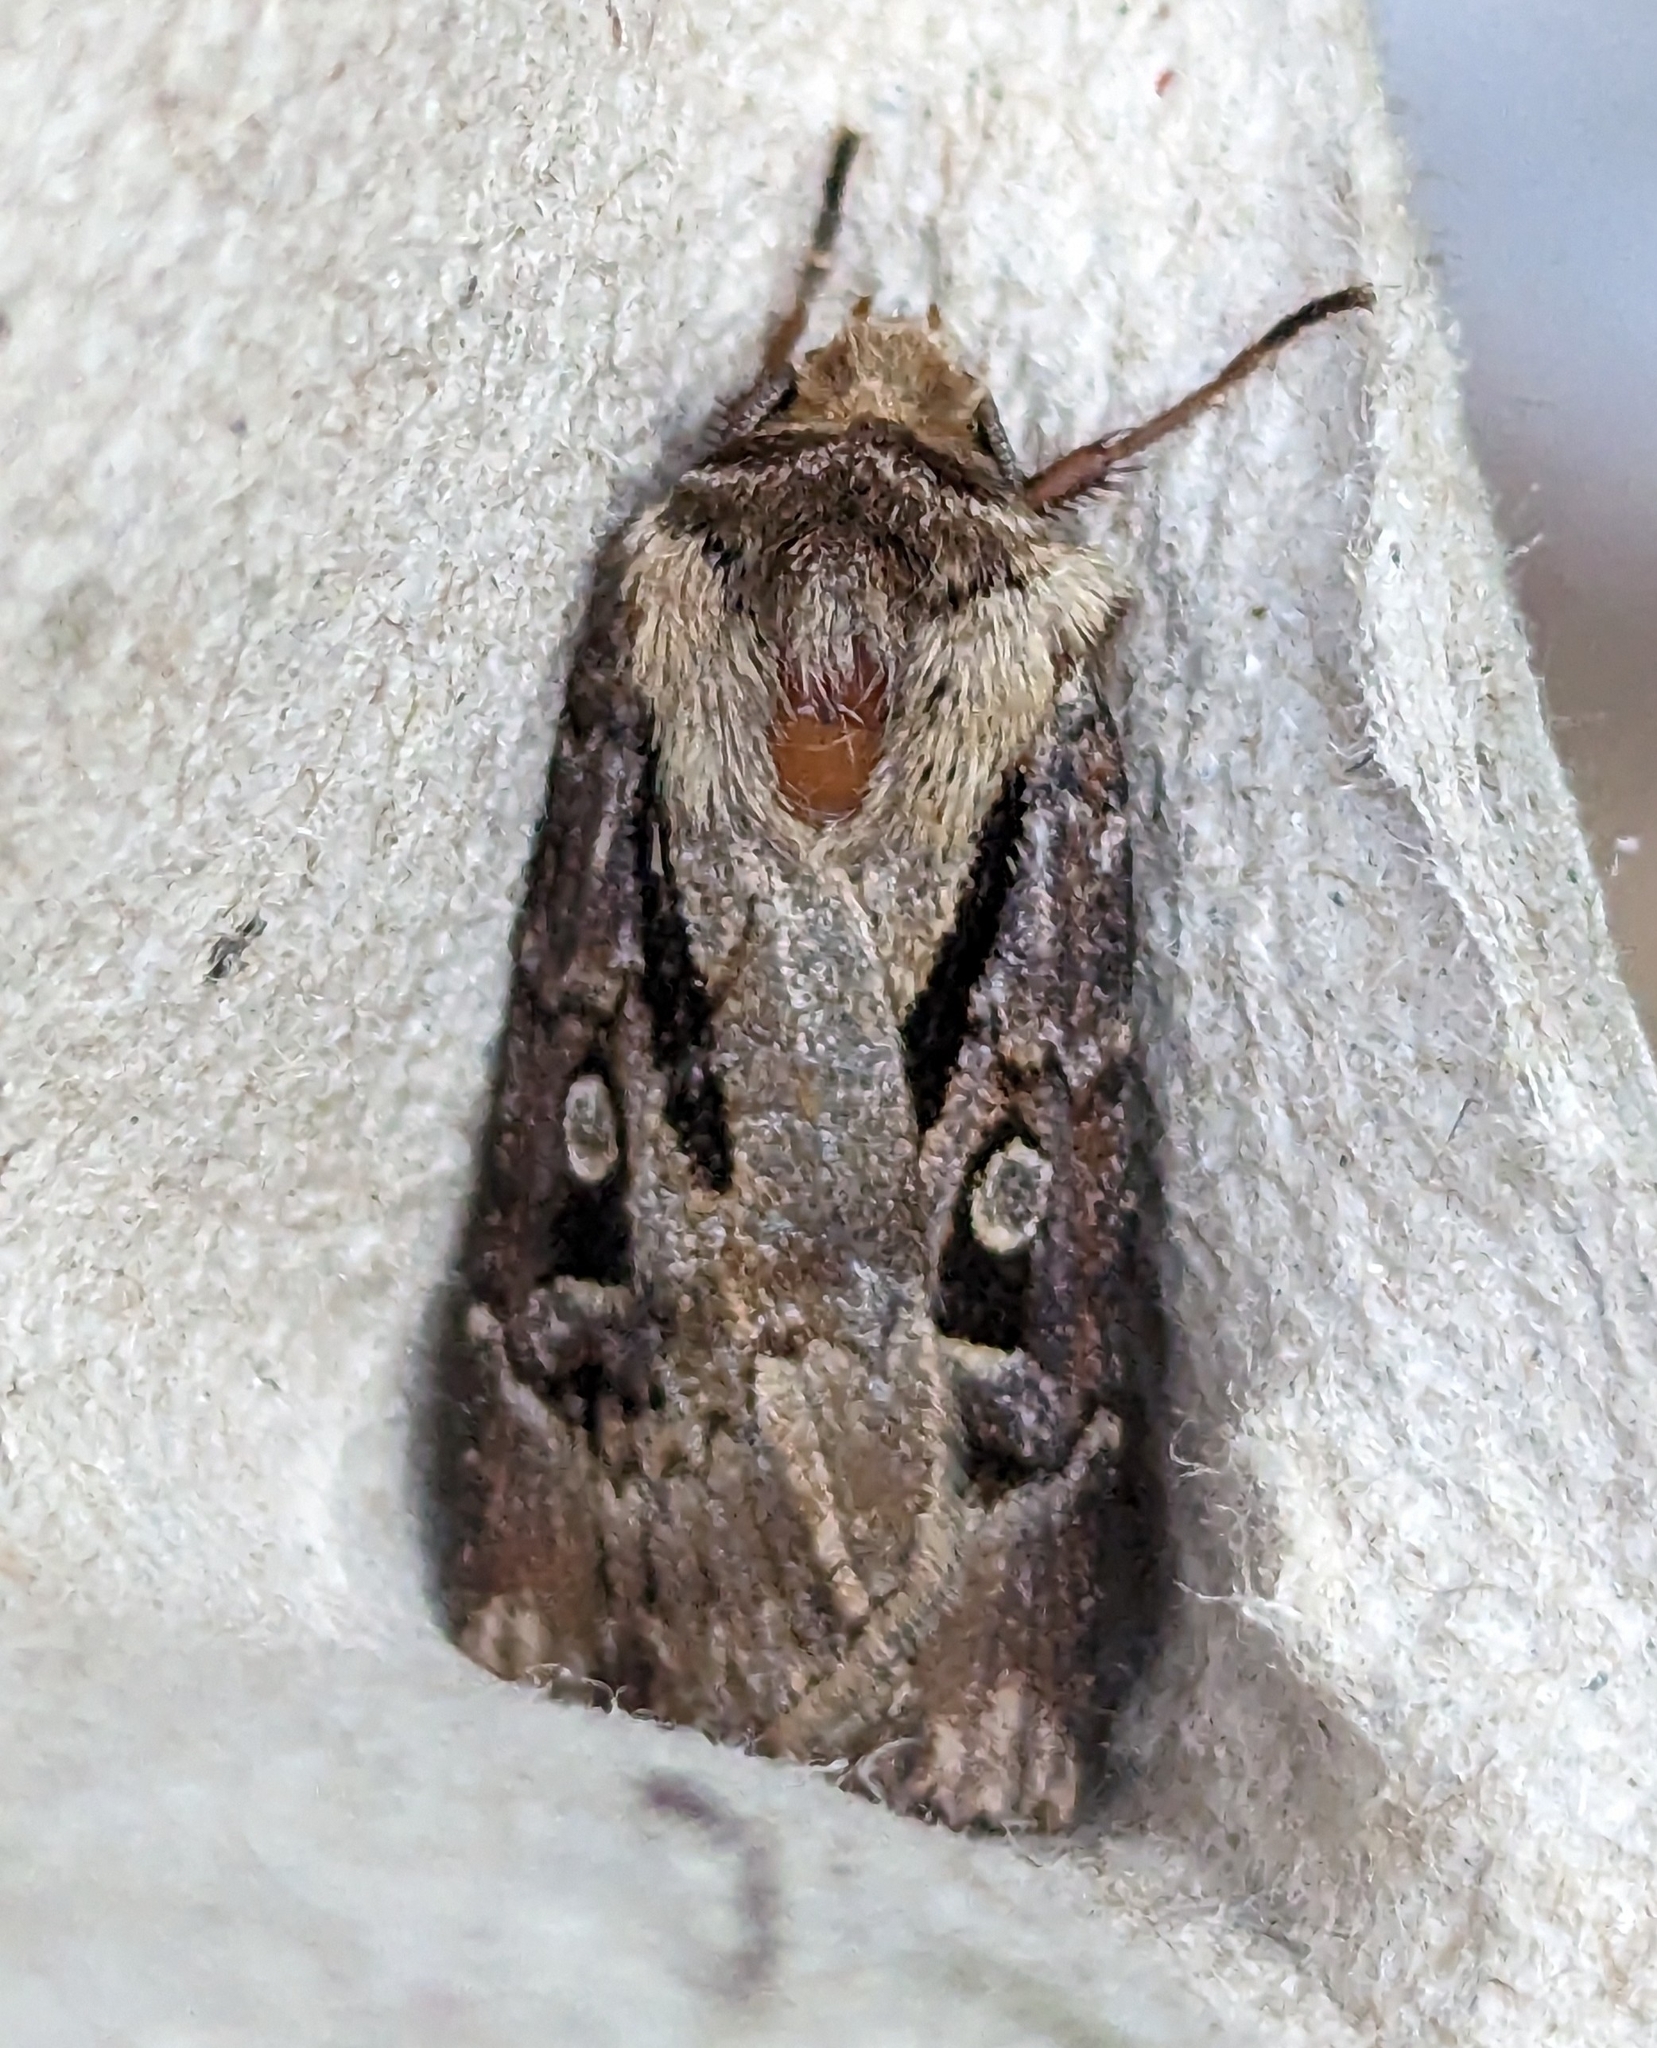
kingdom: Animalia
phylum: Arthropoda
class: Insecta
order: Lepidoptera
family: Noctuidae
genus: Agrotis
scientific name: Agrotis vancouverensis
